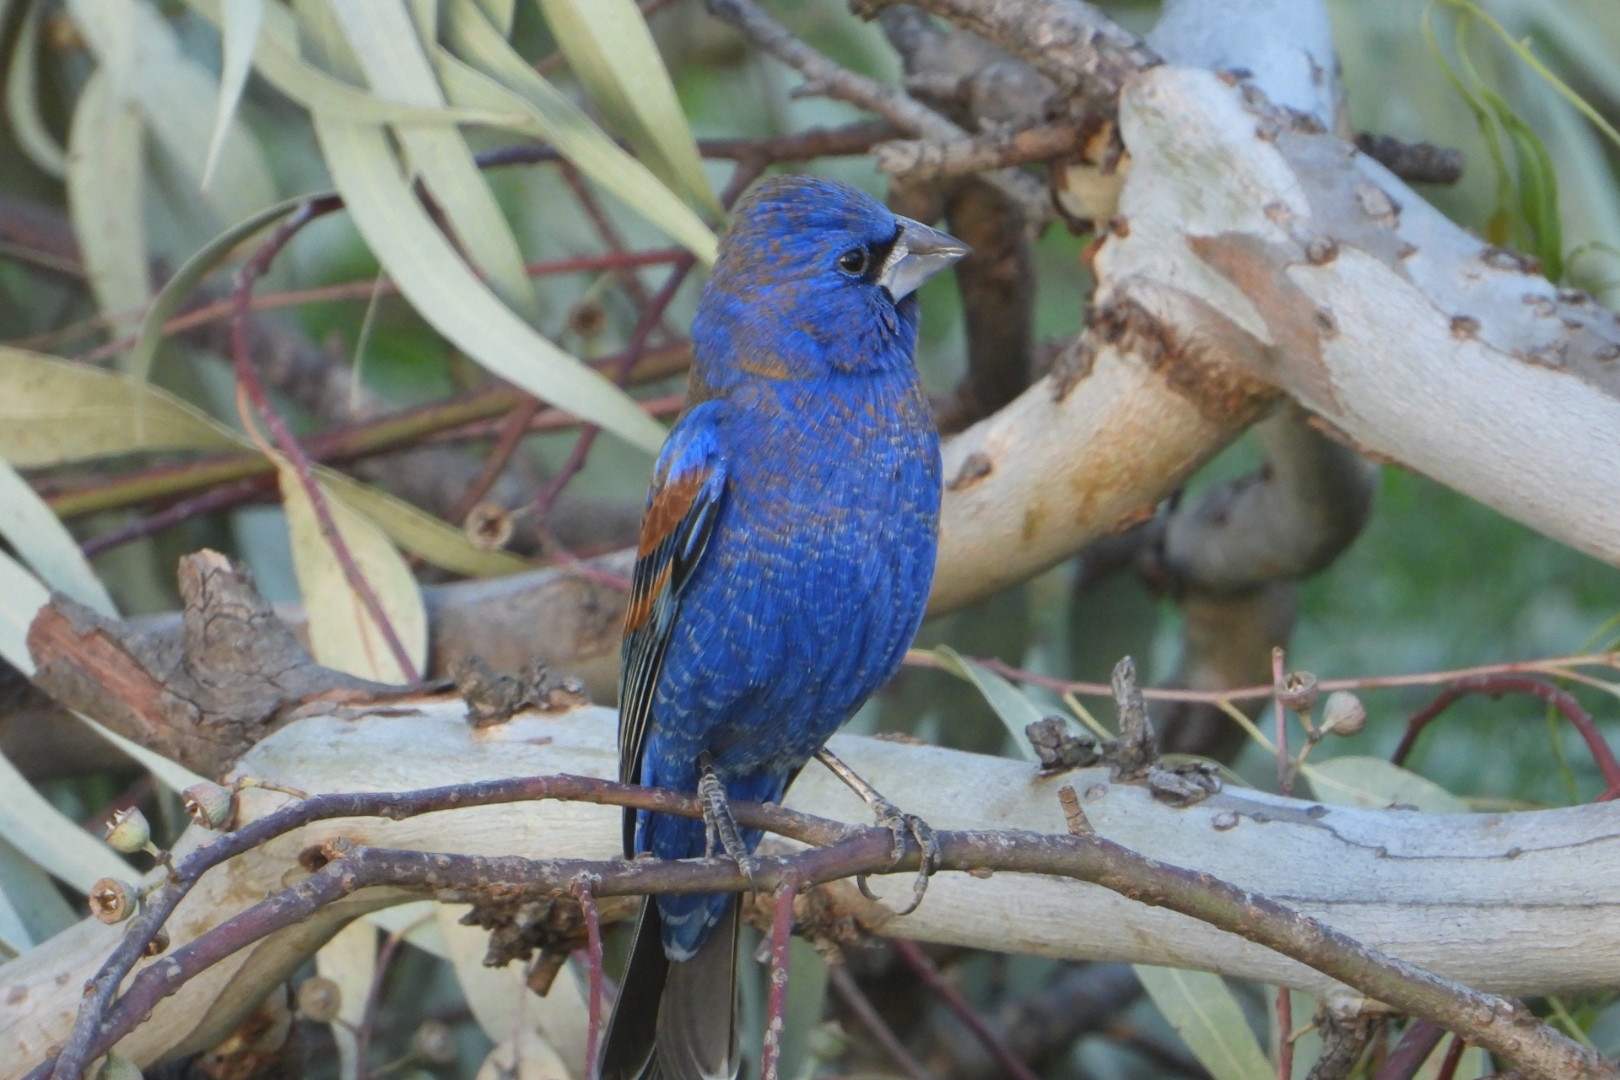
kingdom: Animalia
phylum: Chordata
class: Aves
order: Passeriformes
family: Cardinalidae
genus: Passerina
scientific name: Passerina caerulea
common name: Blue grosbeak
